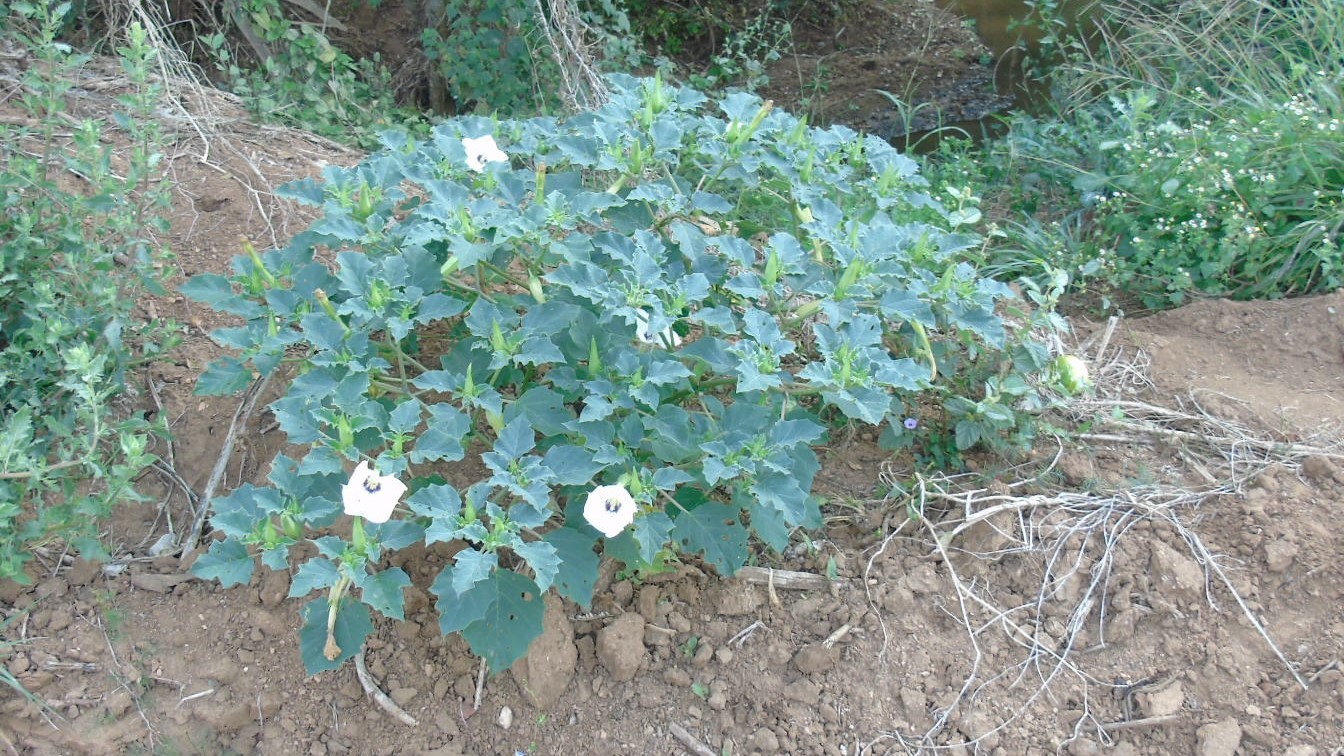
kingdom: Plantae
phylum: Tracheophyta
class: Magnoliopsida
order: Solanales
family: Solanaceae
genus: Datura
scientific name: Datura discolor
